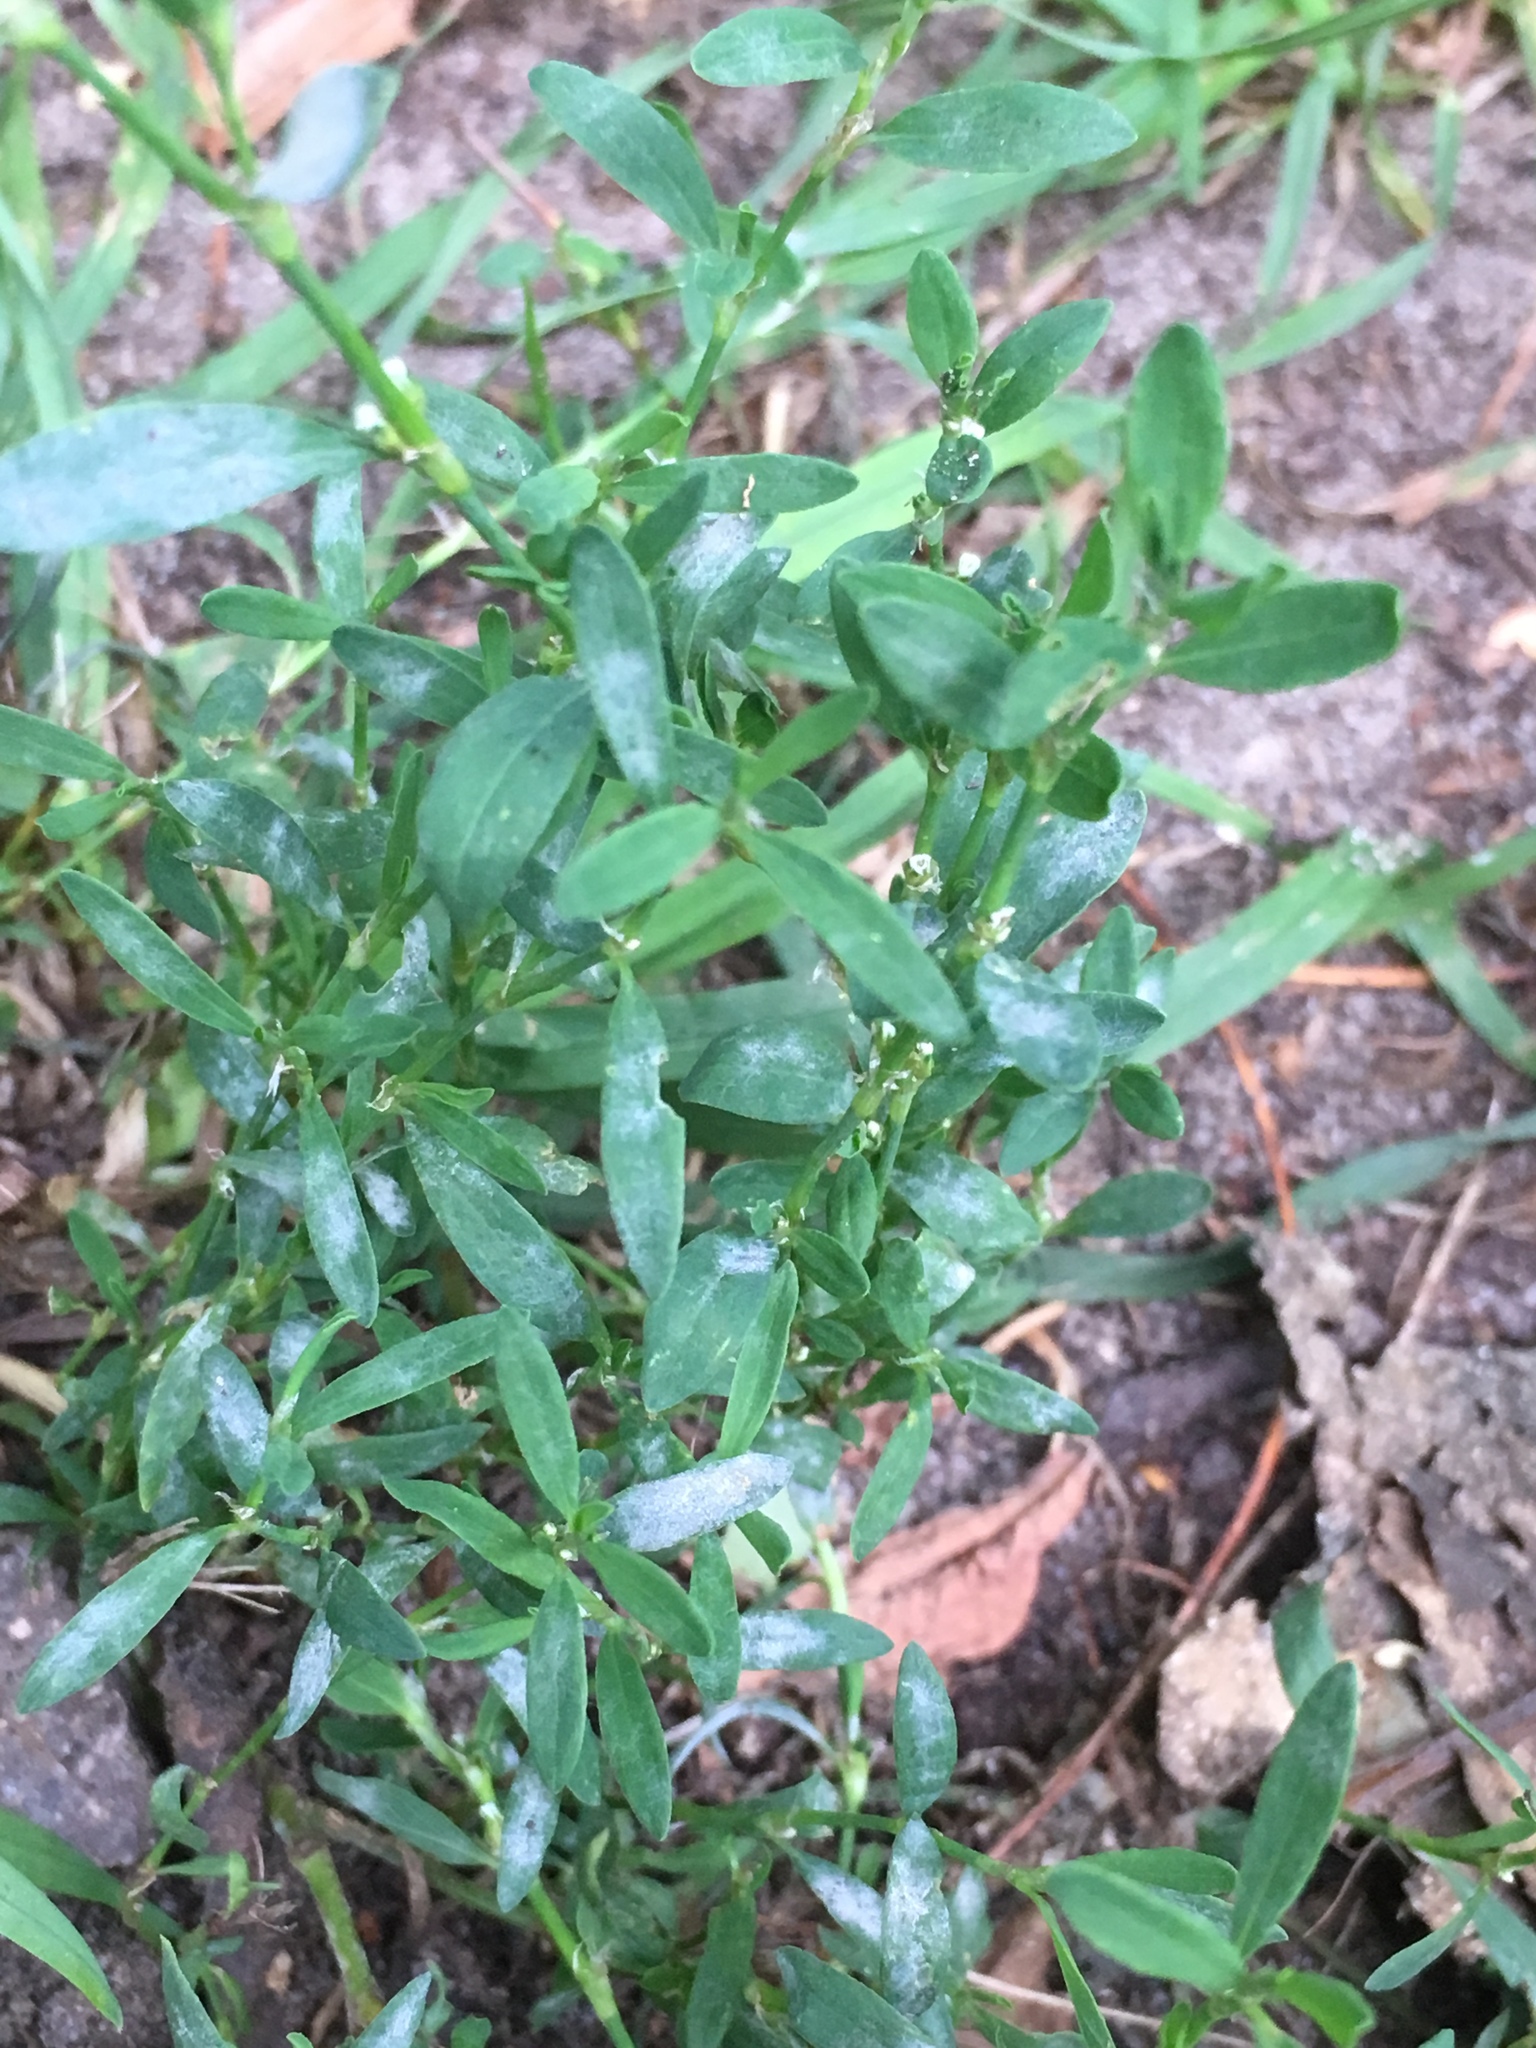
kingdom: Plantae
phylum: Tracheophyta
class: Magnoliopsida
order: Caryophyllales
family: Polygonaceae
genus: Polygonum
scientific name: Polygonum aviculare
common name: Prostrate knotweed
